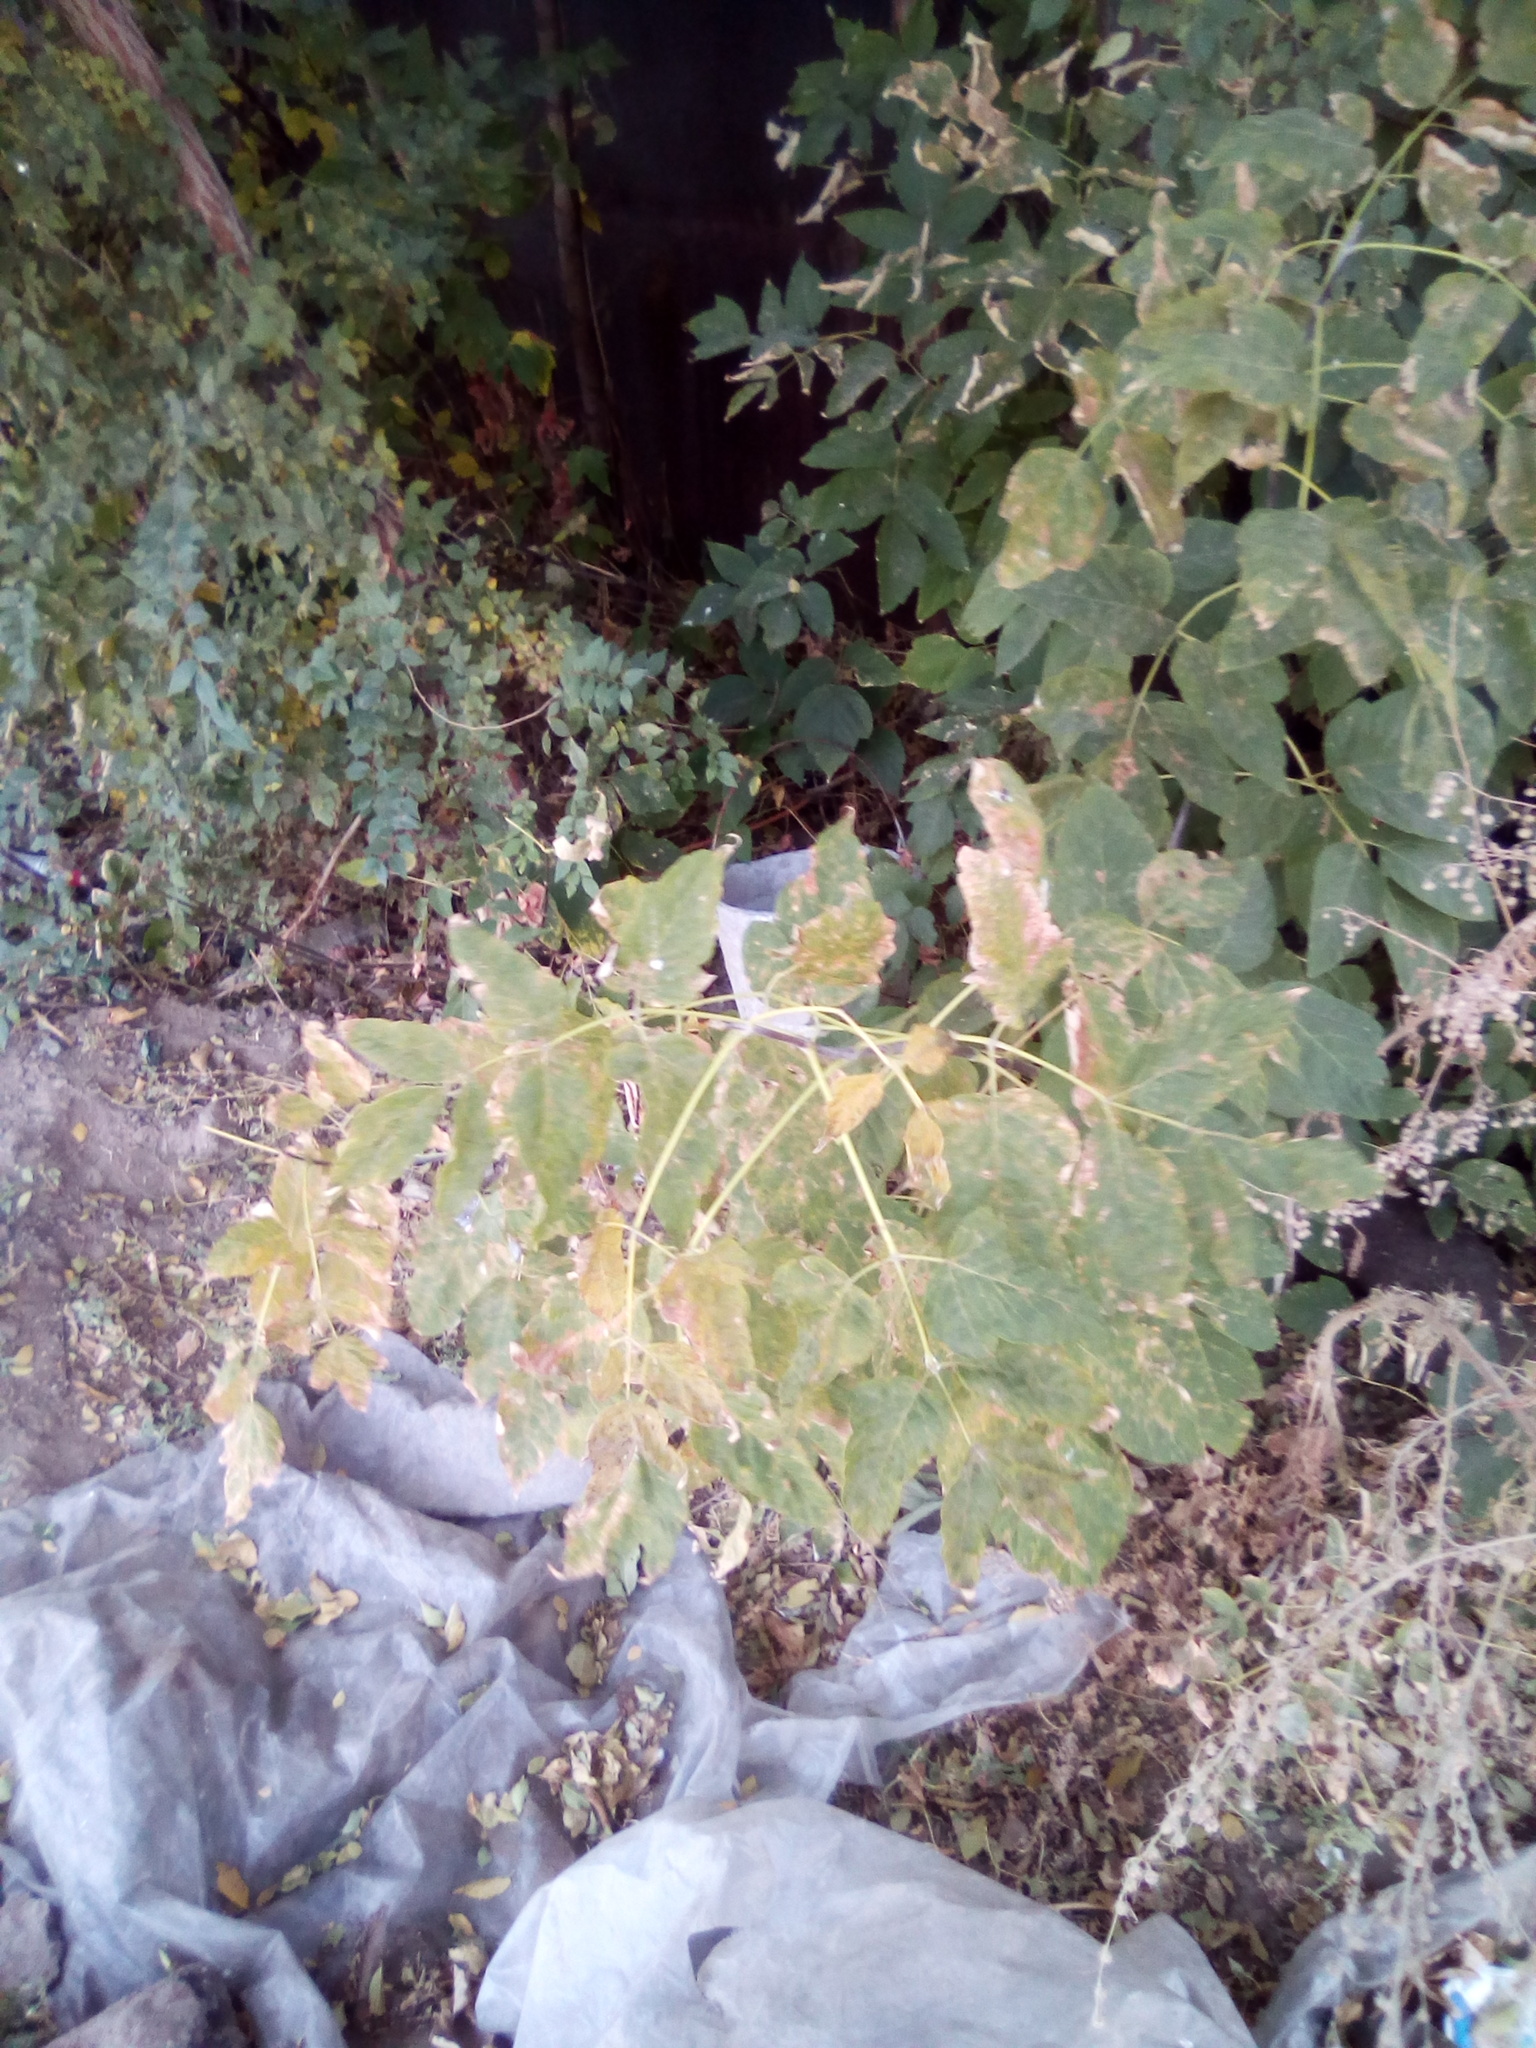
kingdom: Plantae
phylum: Tracheophyta
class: Magnoliopsida
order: Sapindales
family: Sapindaceae
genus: Acer
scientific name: Acer negundo
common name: Ashleaf maple
